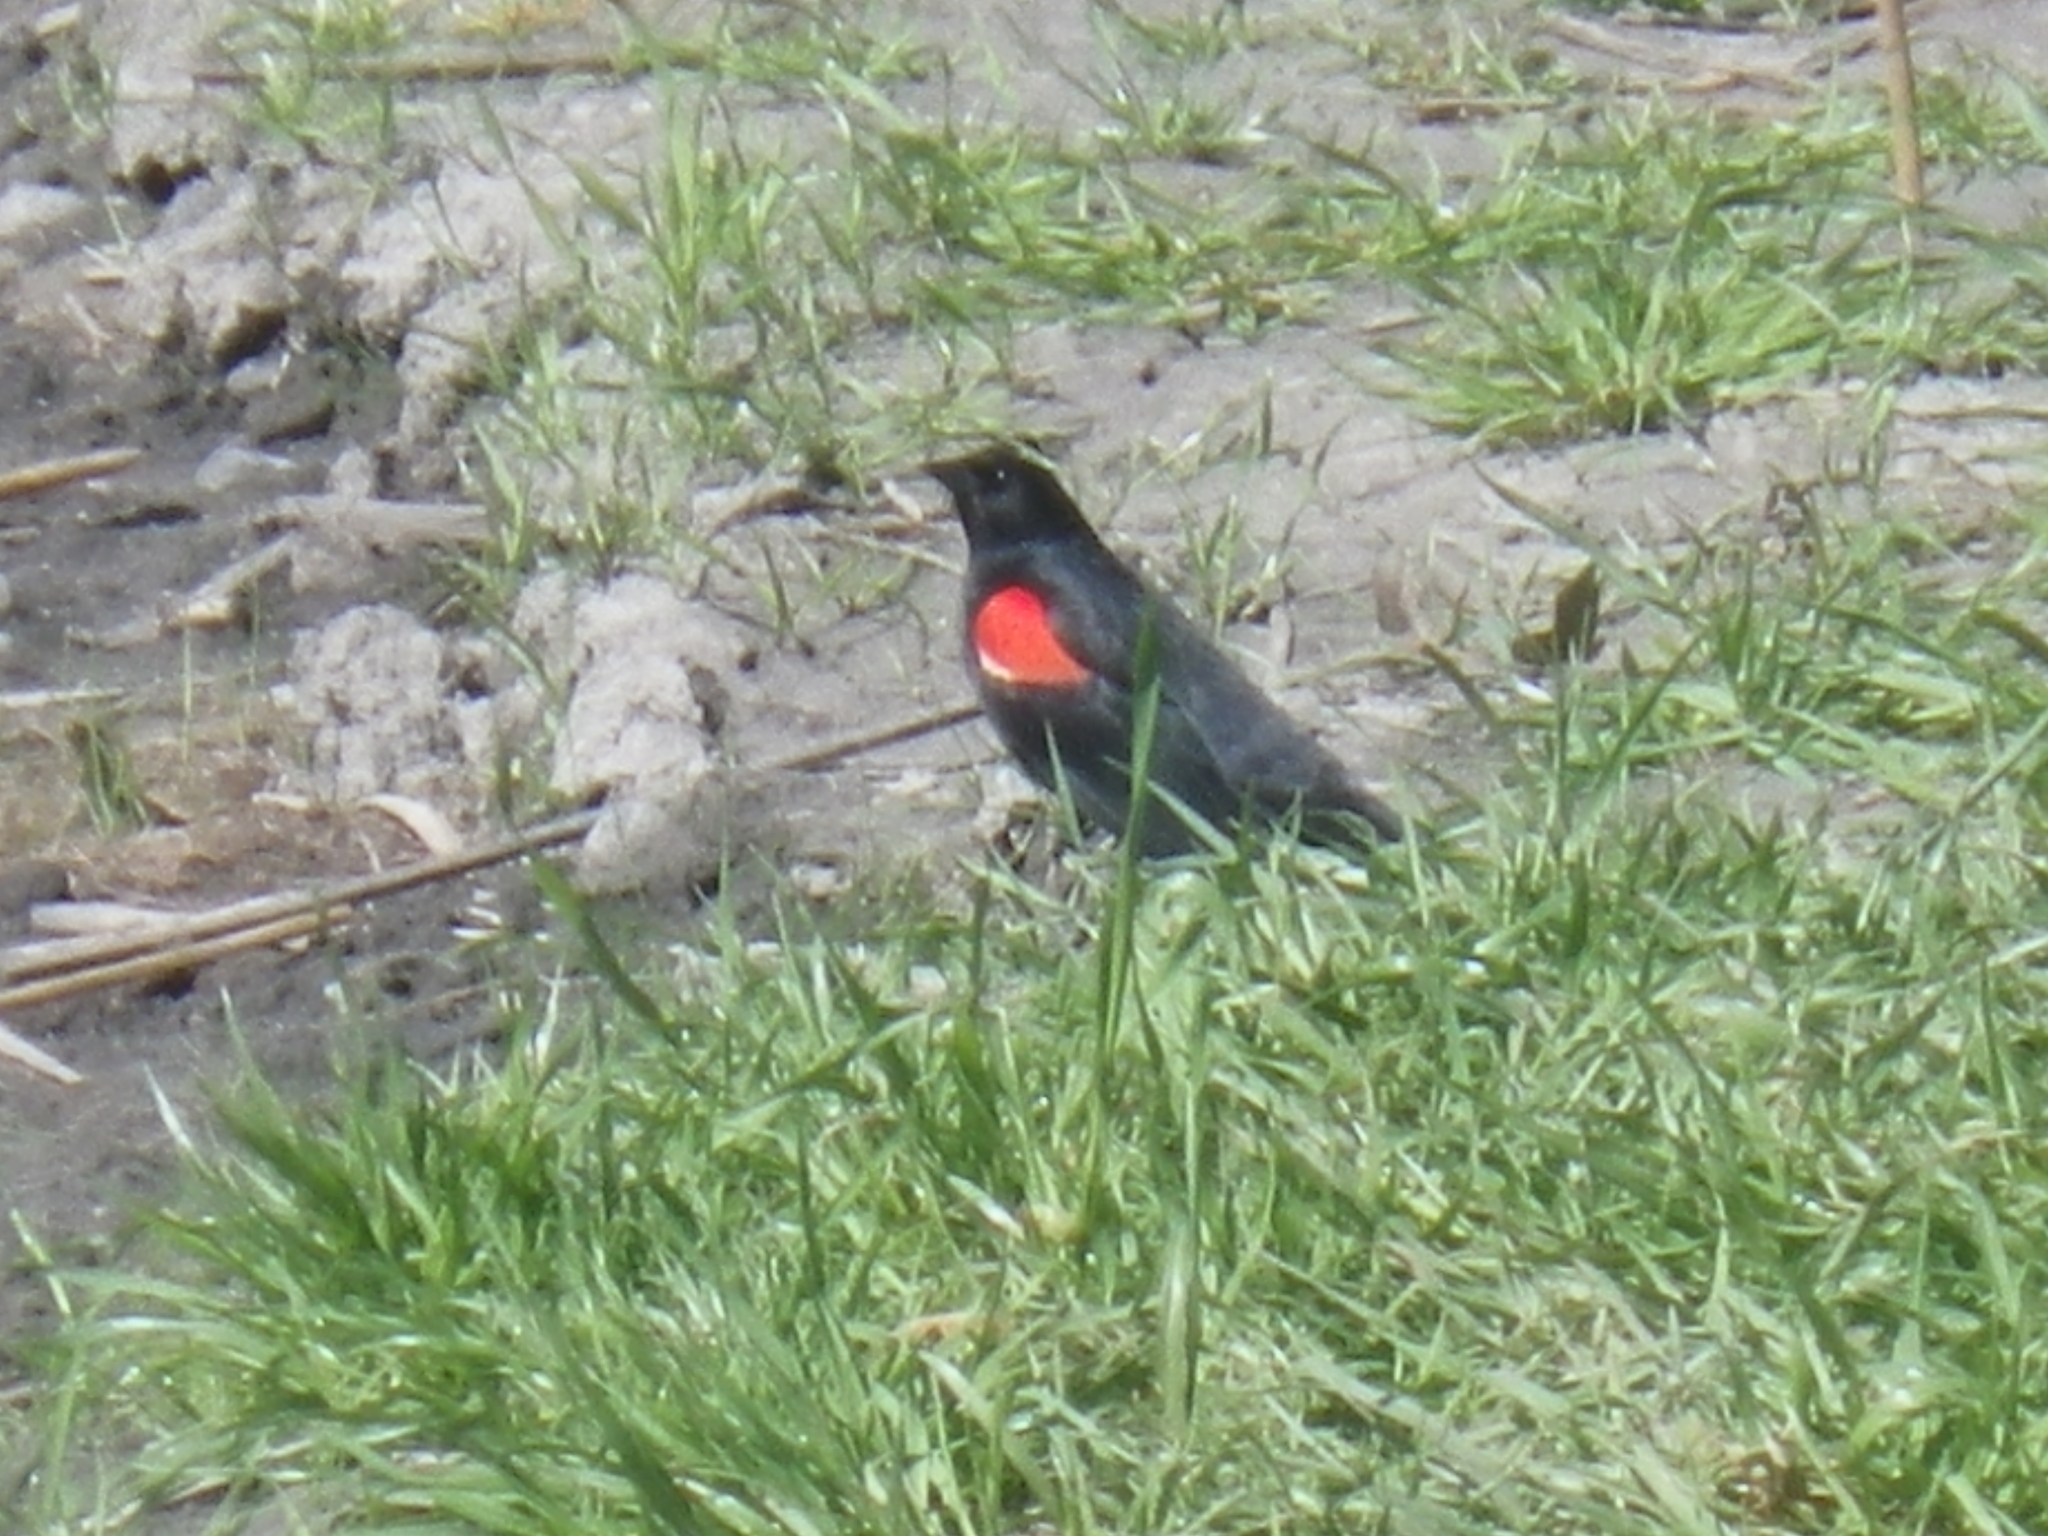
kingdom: Animalia
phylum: Chordata
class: Aves
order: Passeriformes
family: Icteridae
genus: Agelaius
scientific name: Agelaius phoeniceus
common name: Red-winged blackbird
